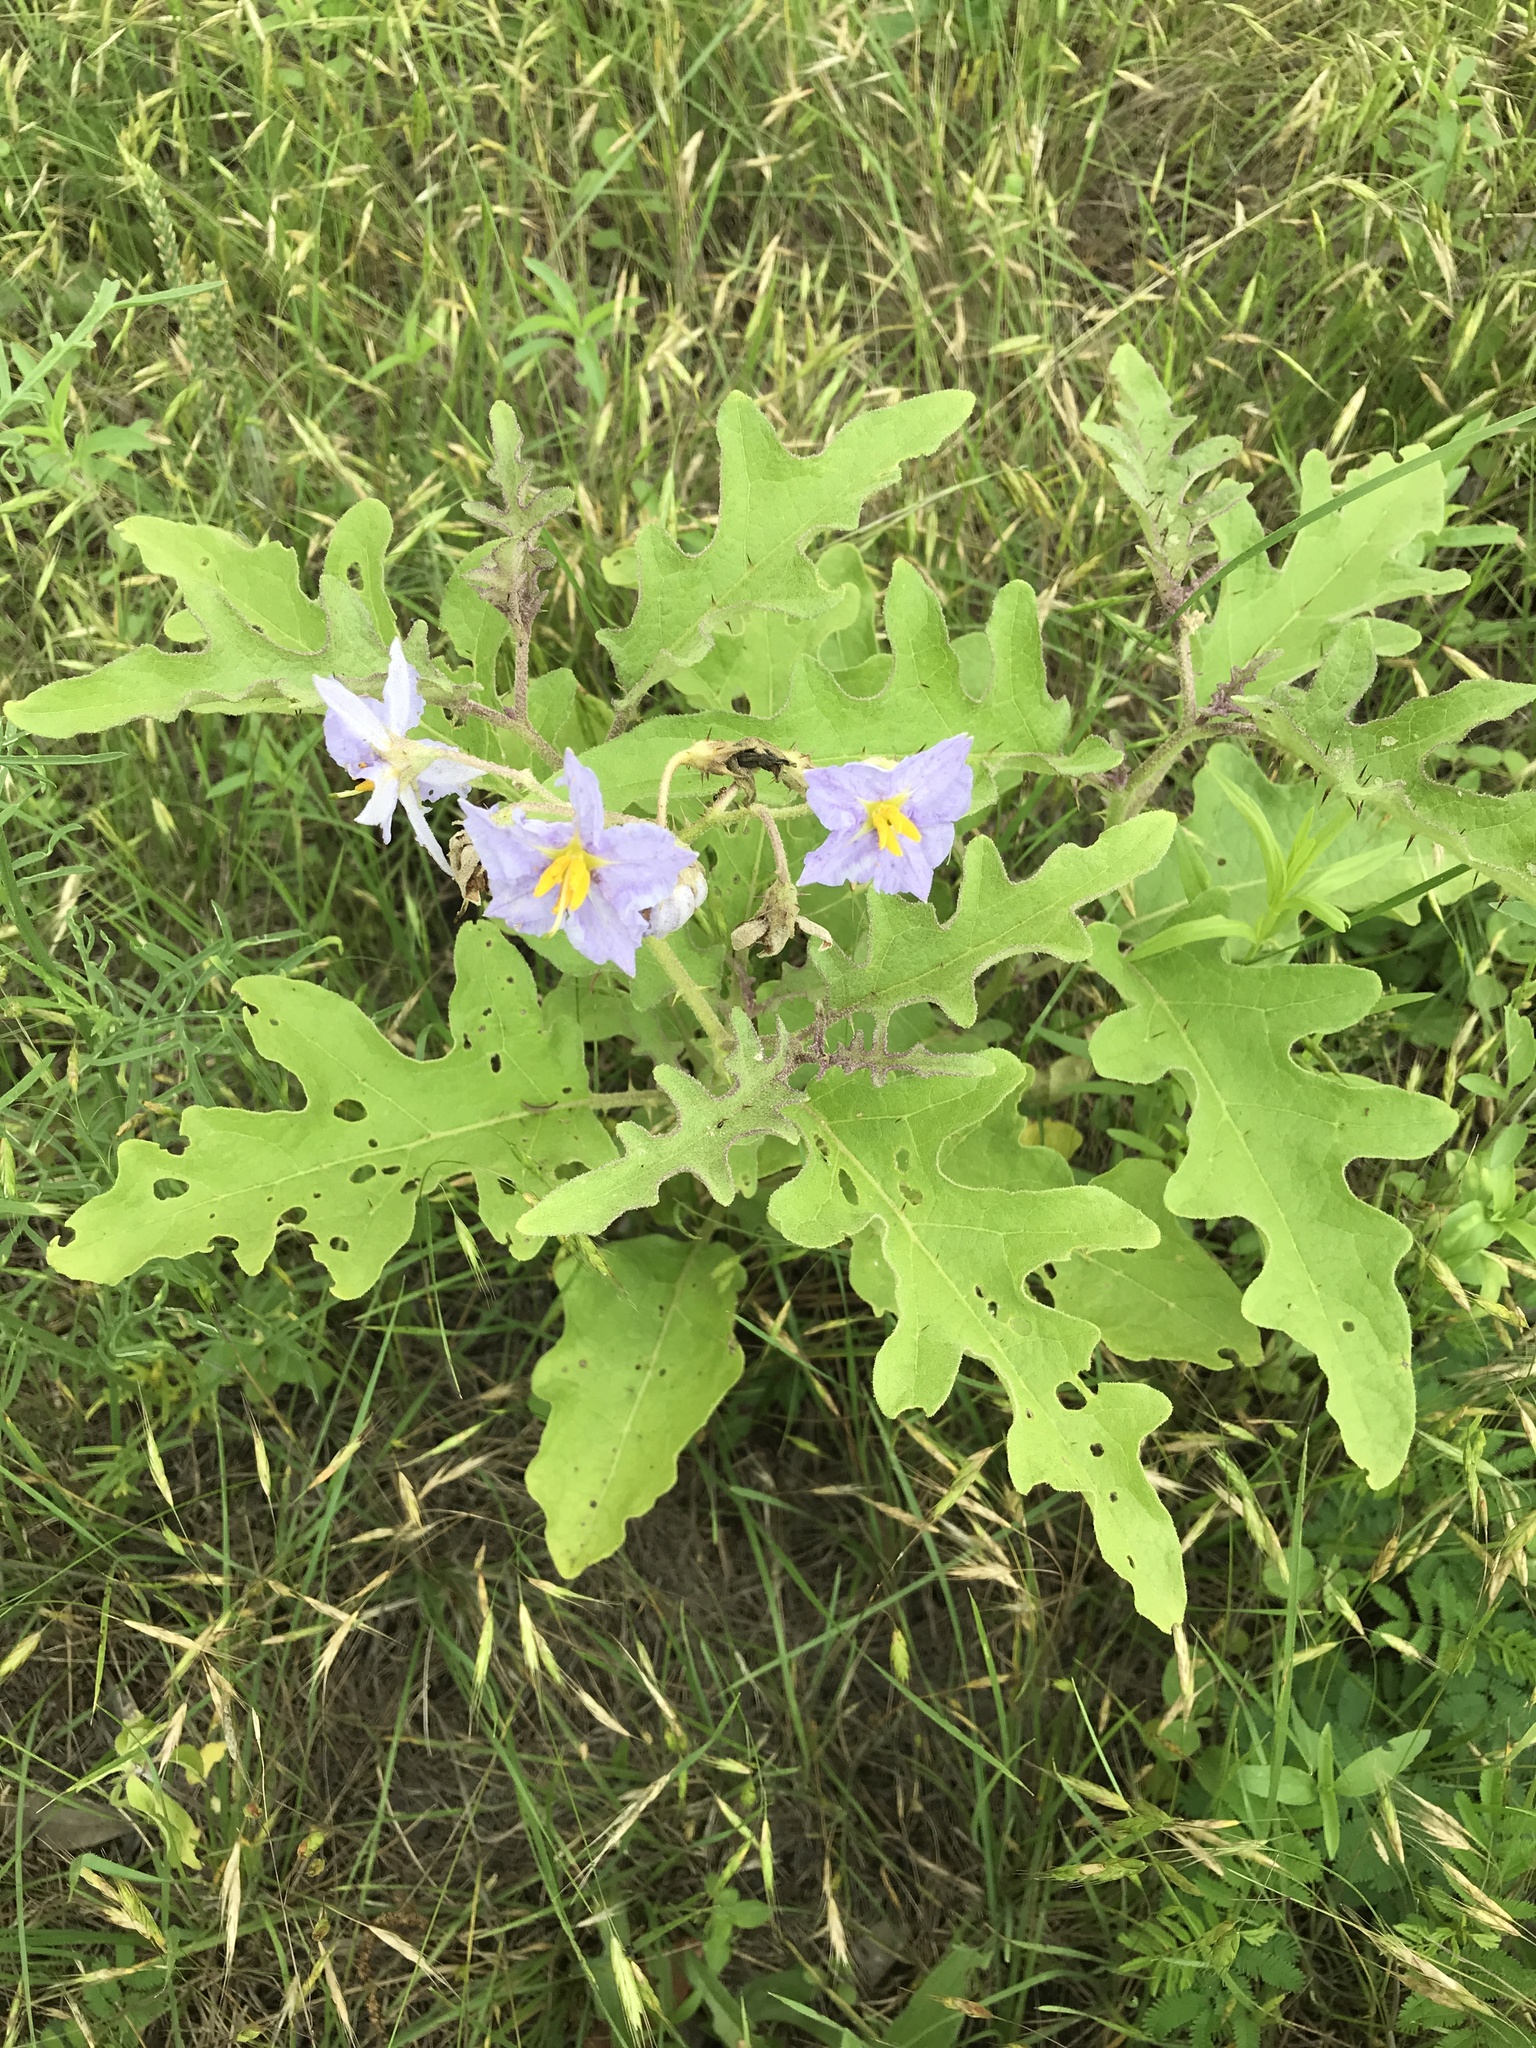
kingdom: Plantae
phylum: Tracheophyta
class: Magnoliopsida
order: Solanales
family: Solanaceae
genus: Solanum
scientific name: Solanum dimidiatum
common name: Carolina horse-nettle
